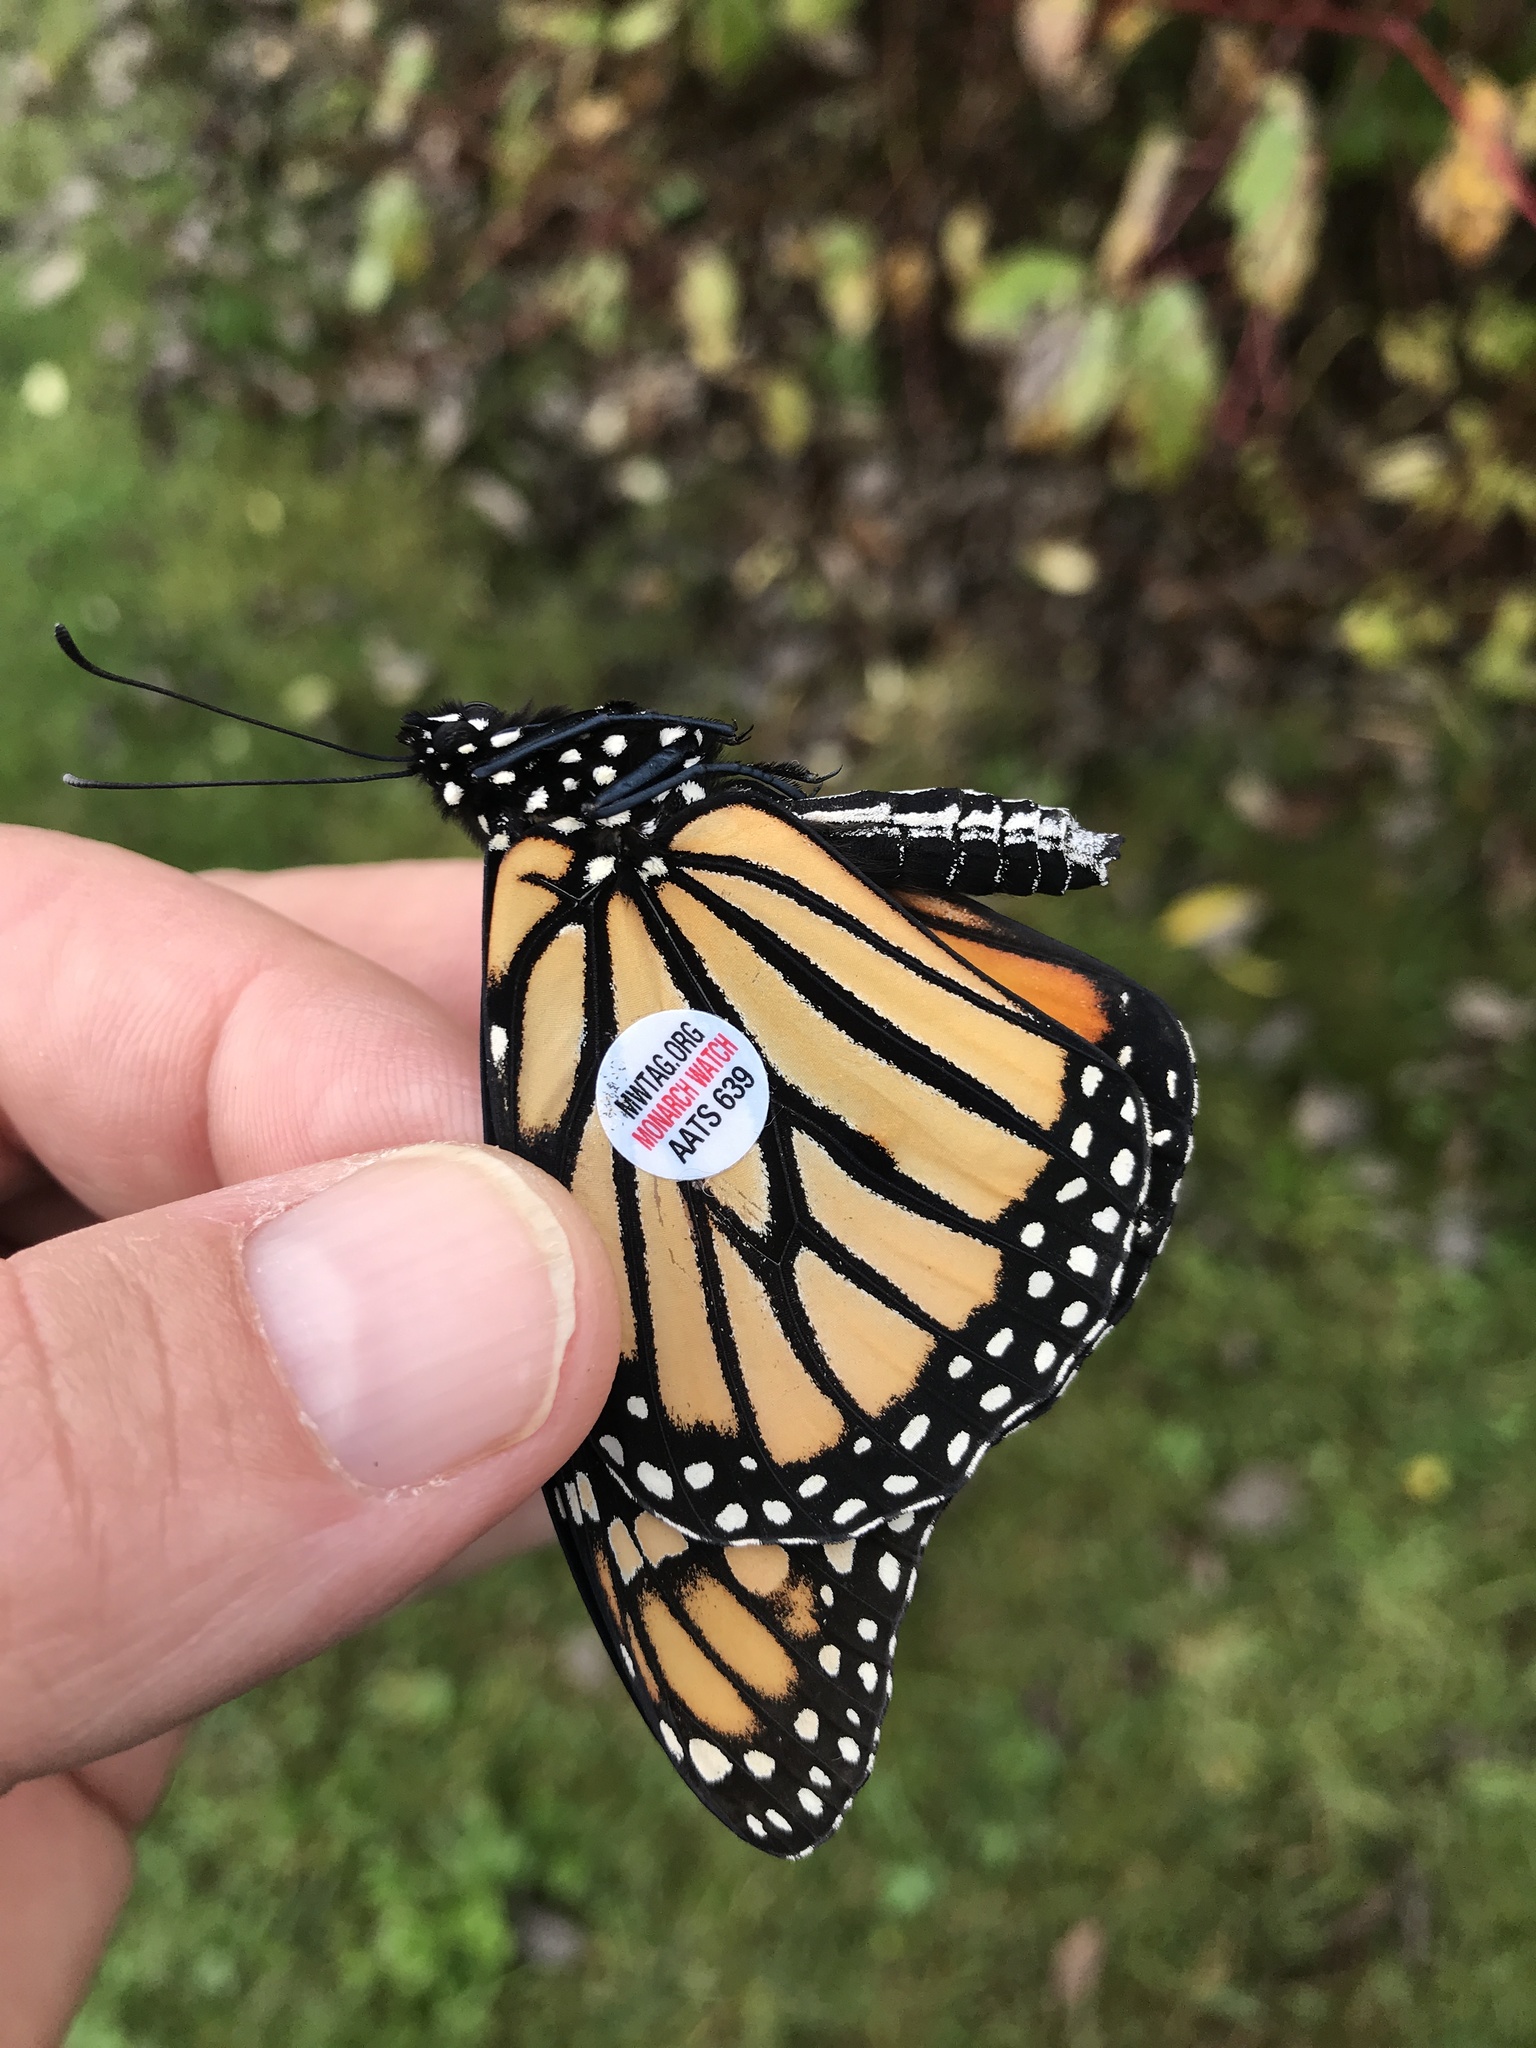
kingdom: Animalia
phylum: Arthropoda
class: Insecta
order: Lepidoptera
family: Nymphalidae
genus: Danaus
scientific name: Danaus plexippus
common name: Monarch
